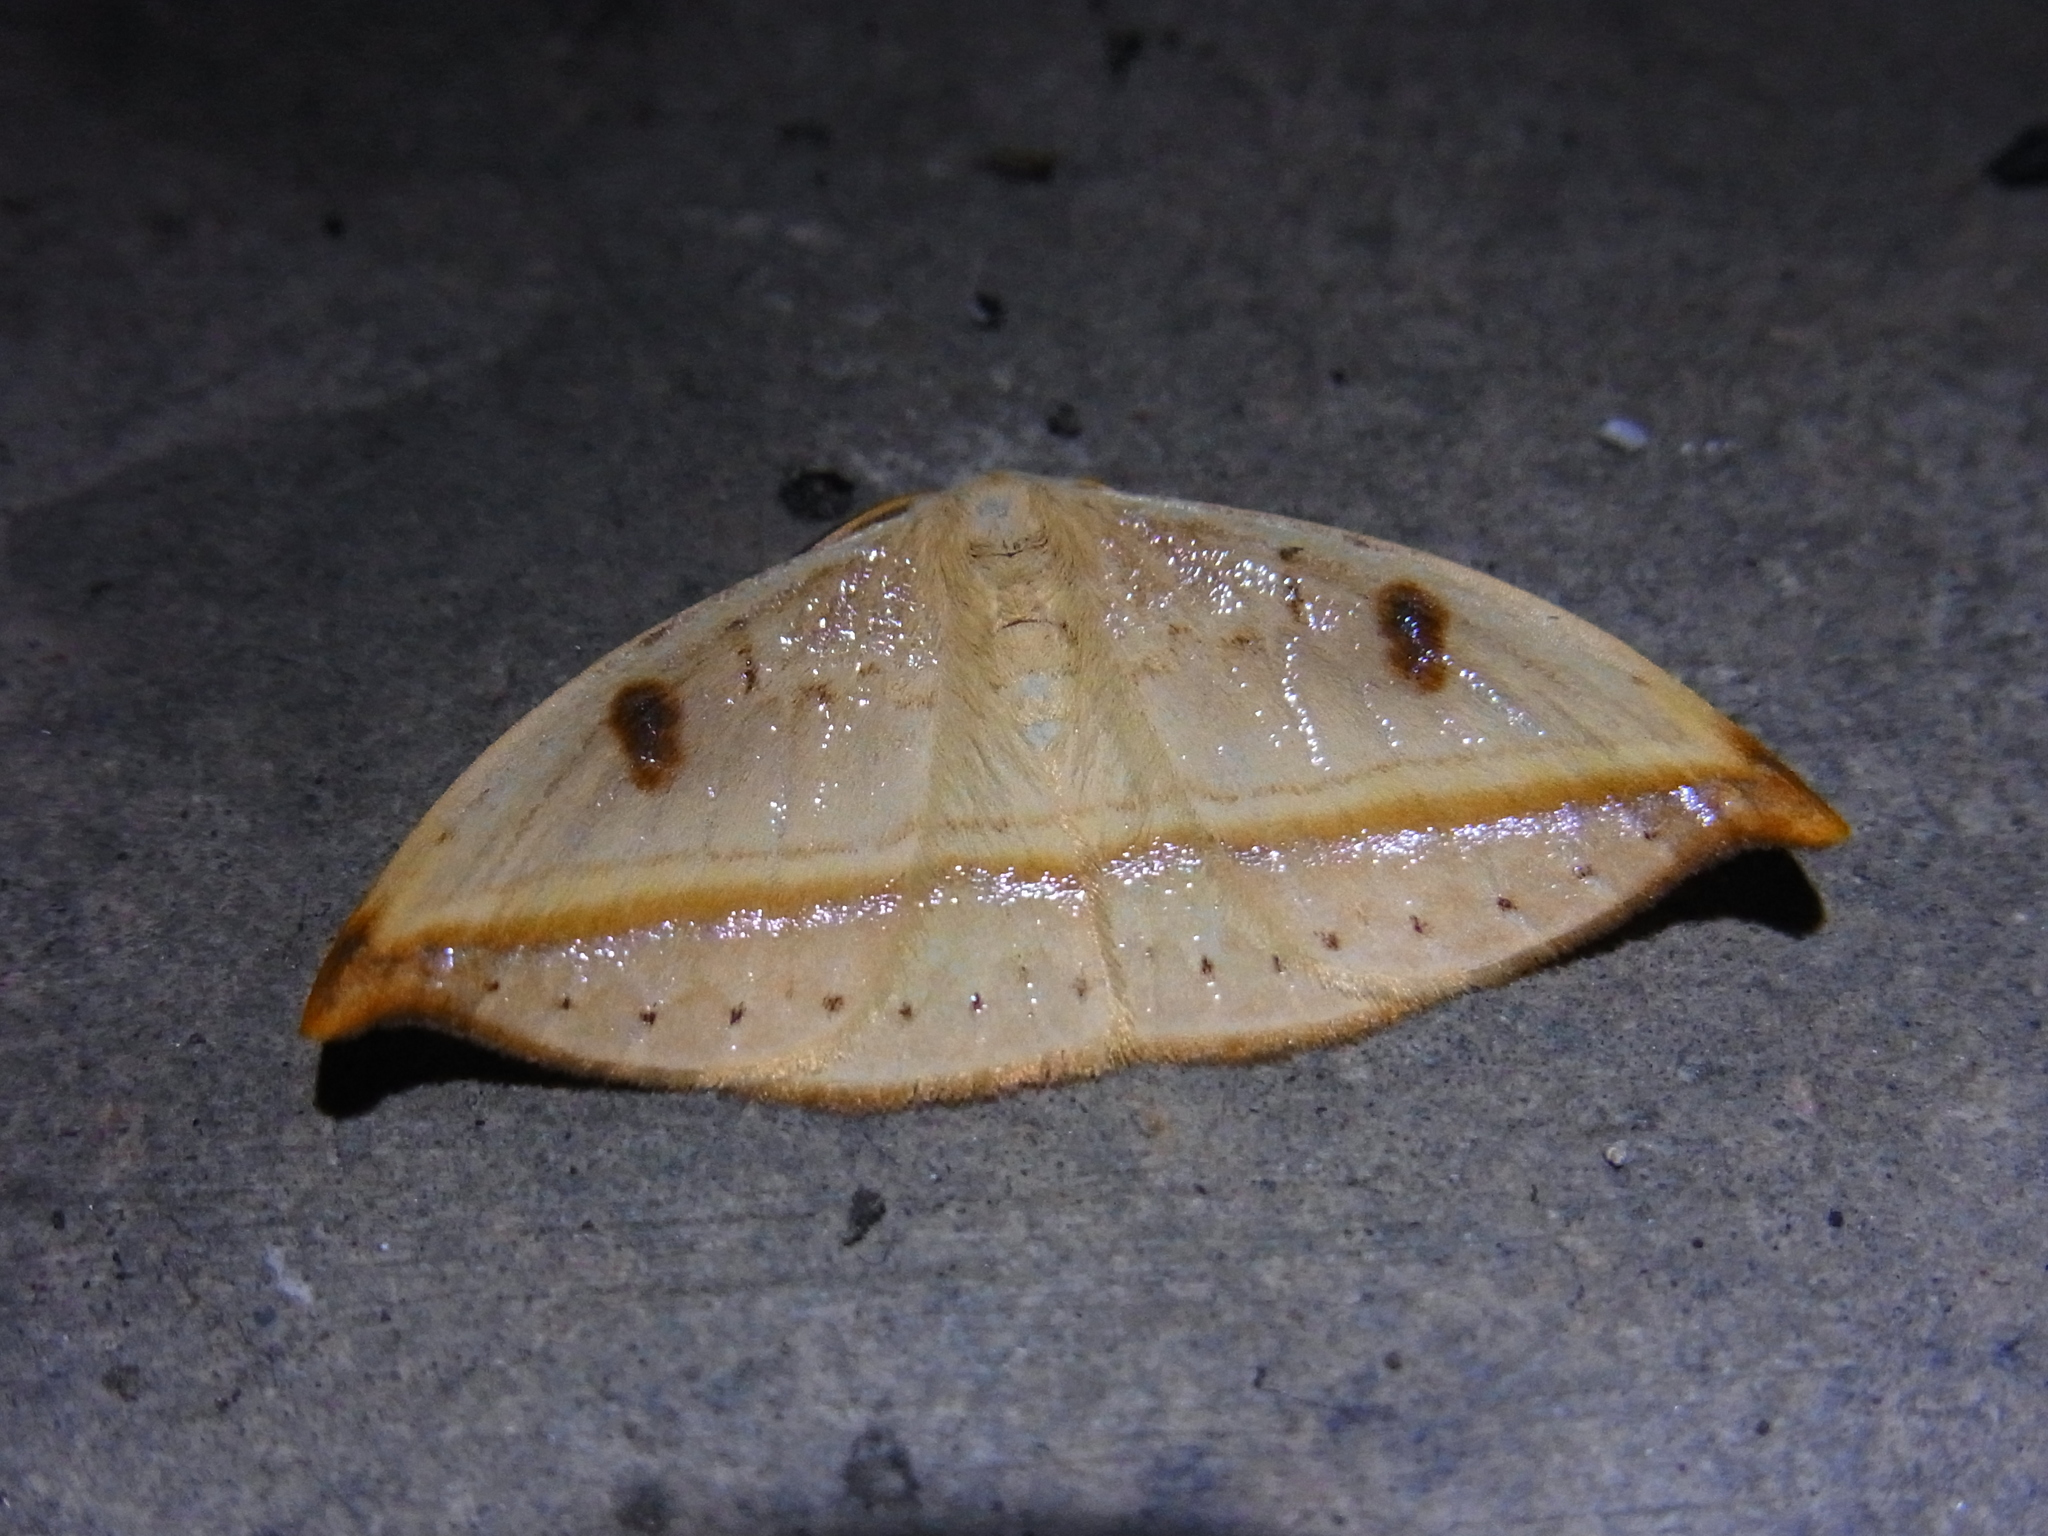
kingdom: Animalia
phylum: Arthropoda
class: Insecta
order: Lepidoptera
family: Drepanidae
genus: Callidrepana
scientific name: Callidrepana patrana
